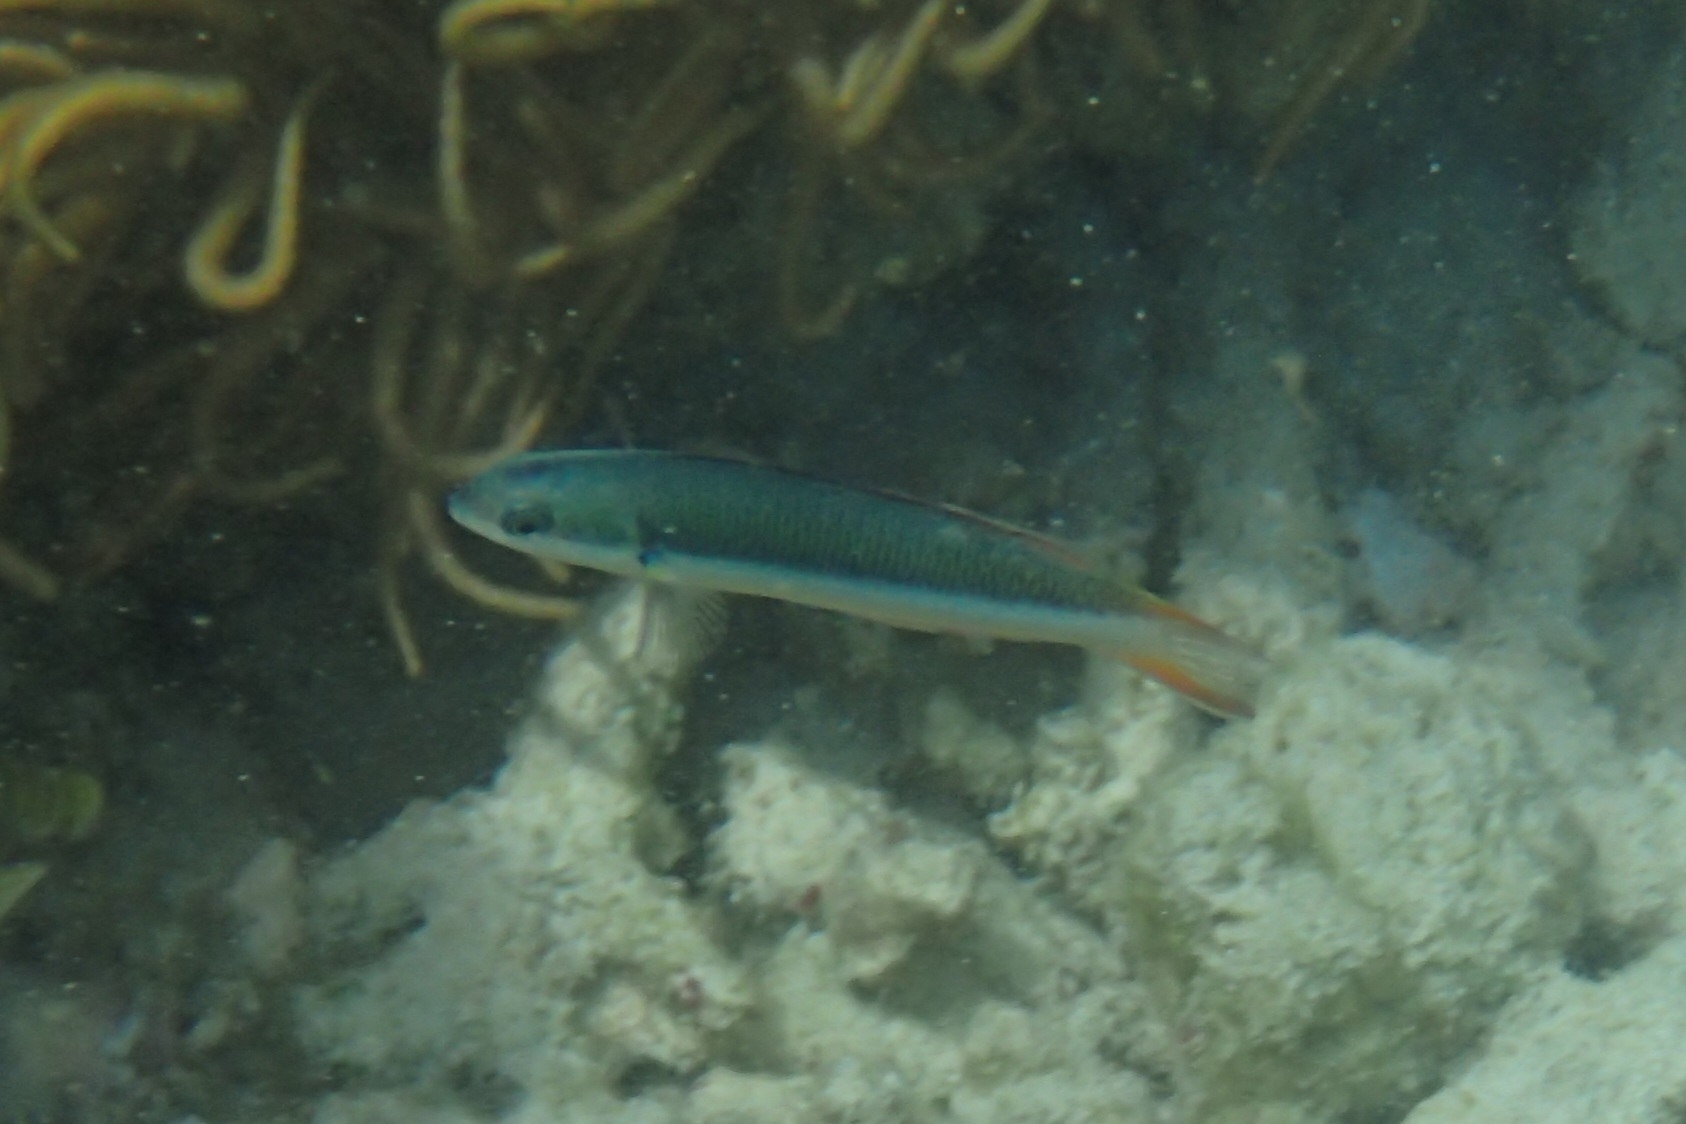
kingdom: Animalia
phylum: Chordata
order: Perciformes
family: Labridae
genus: Thalassoma
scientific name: Thalassoma amblycephalum
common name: Bluehead wrasse
